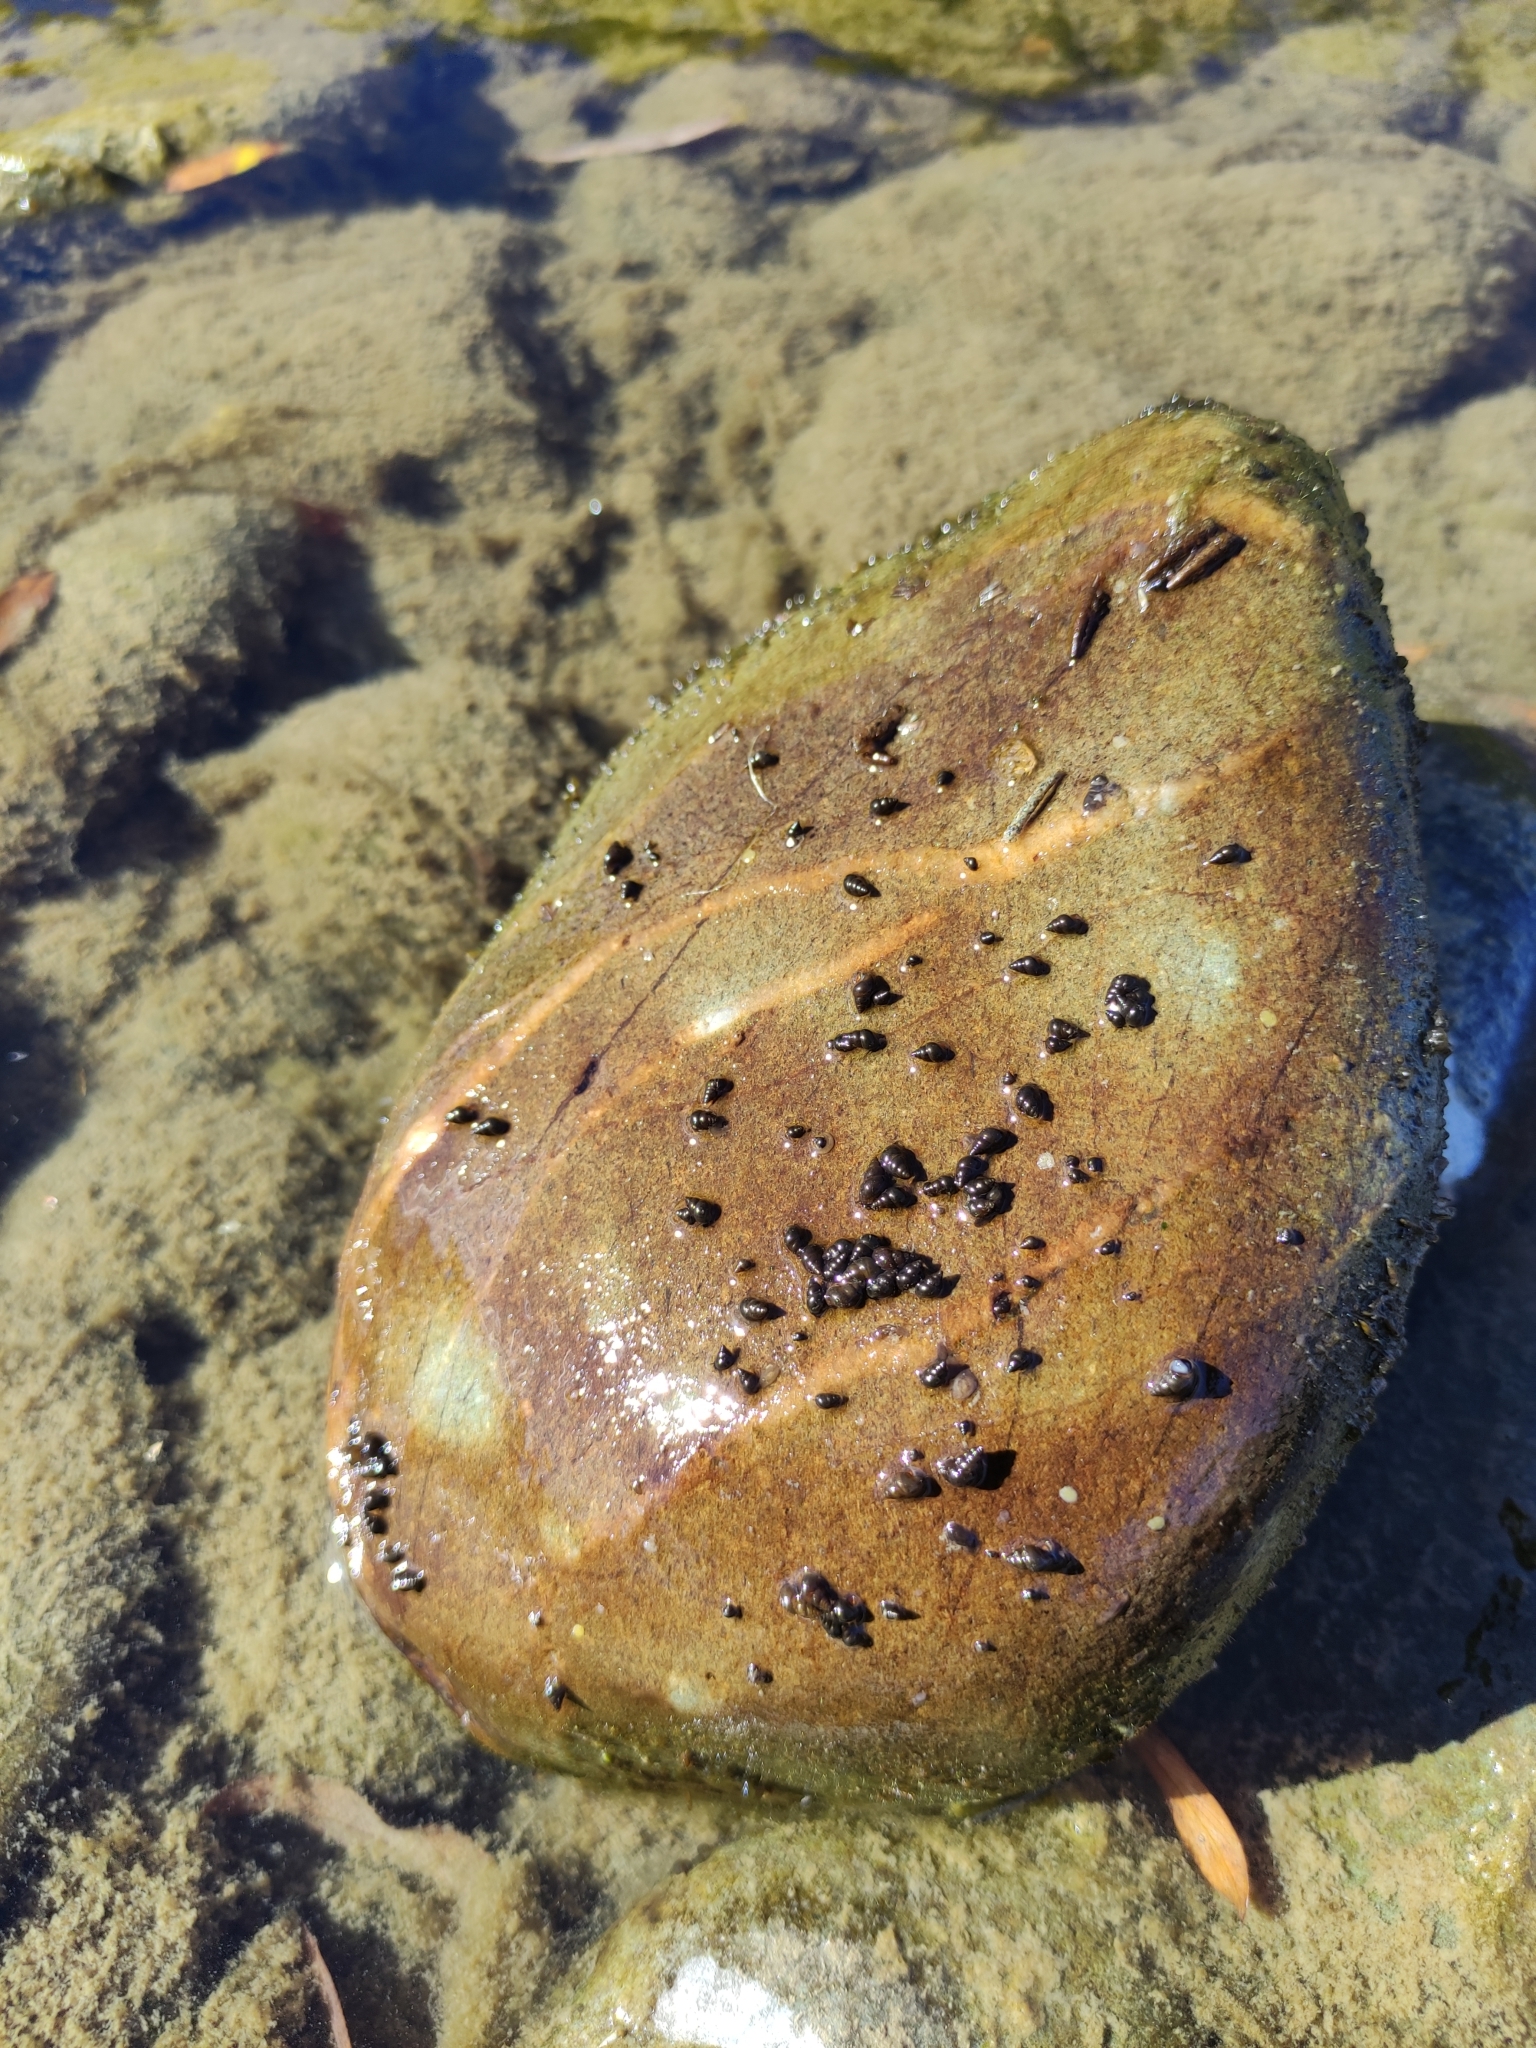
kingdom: Animalia
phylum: Mollusca
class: Gastropoda
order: Littorinimorpha
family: Tateidae
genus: Potamopyrgus
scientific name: Potamopyrgus antipodarum
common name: Jenkins' spire snail
